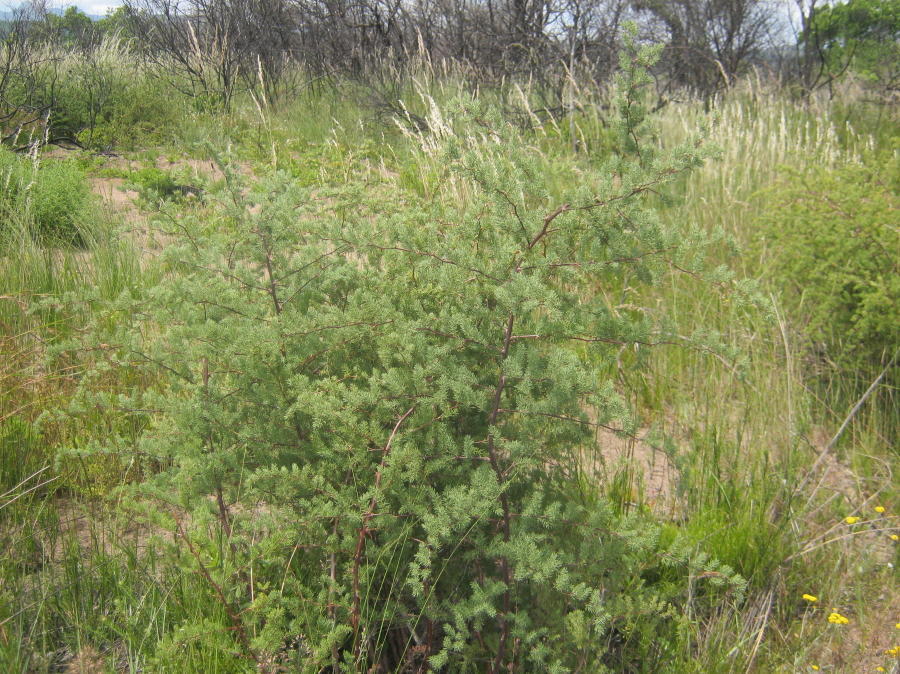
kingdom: Plantae
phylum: Tracheophyta
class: Liliopsida
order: Asparagales
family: Asparagaceae
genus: Asparagus
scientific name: Asparagus rubicundus
